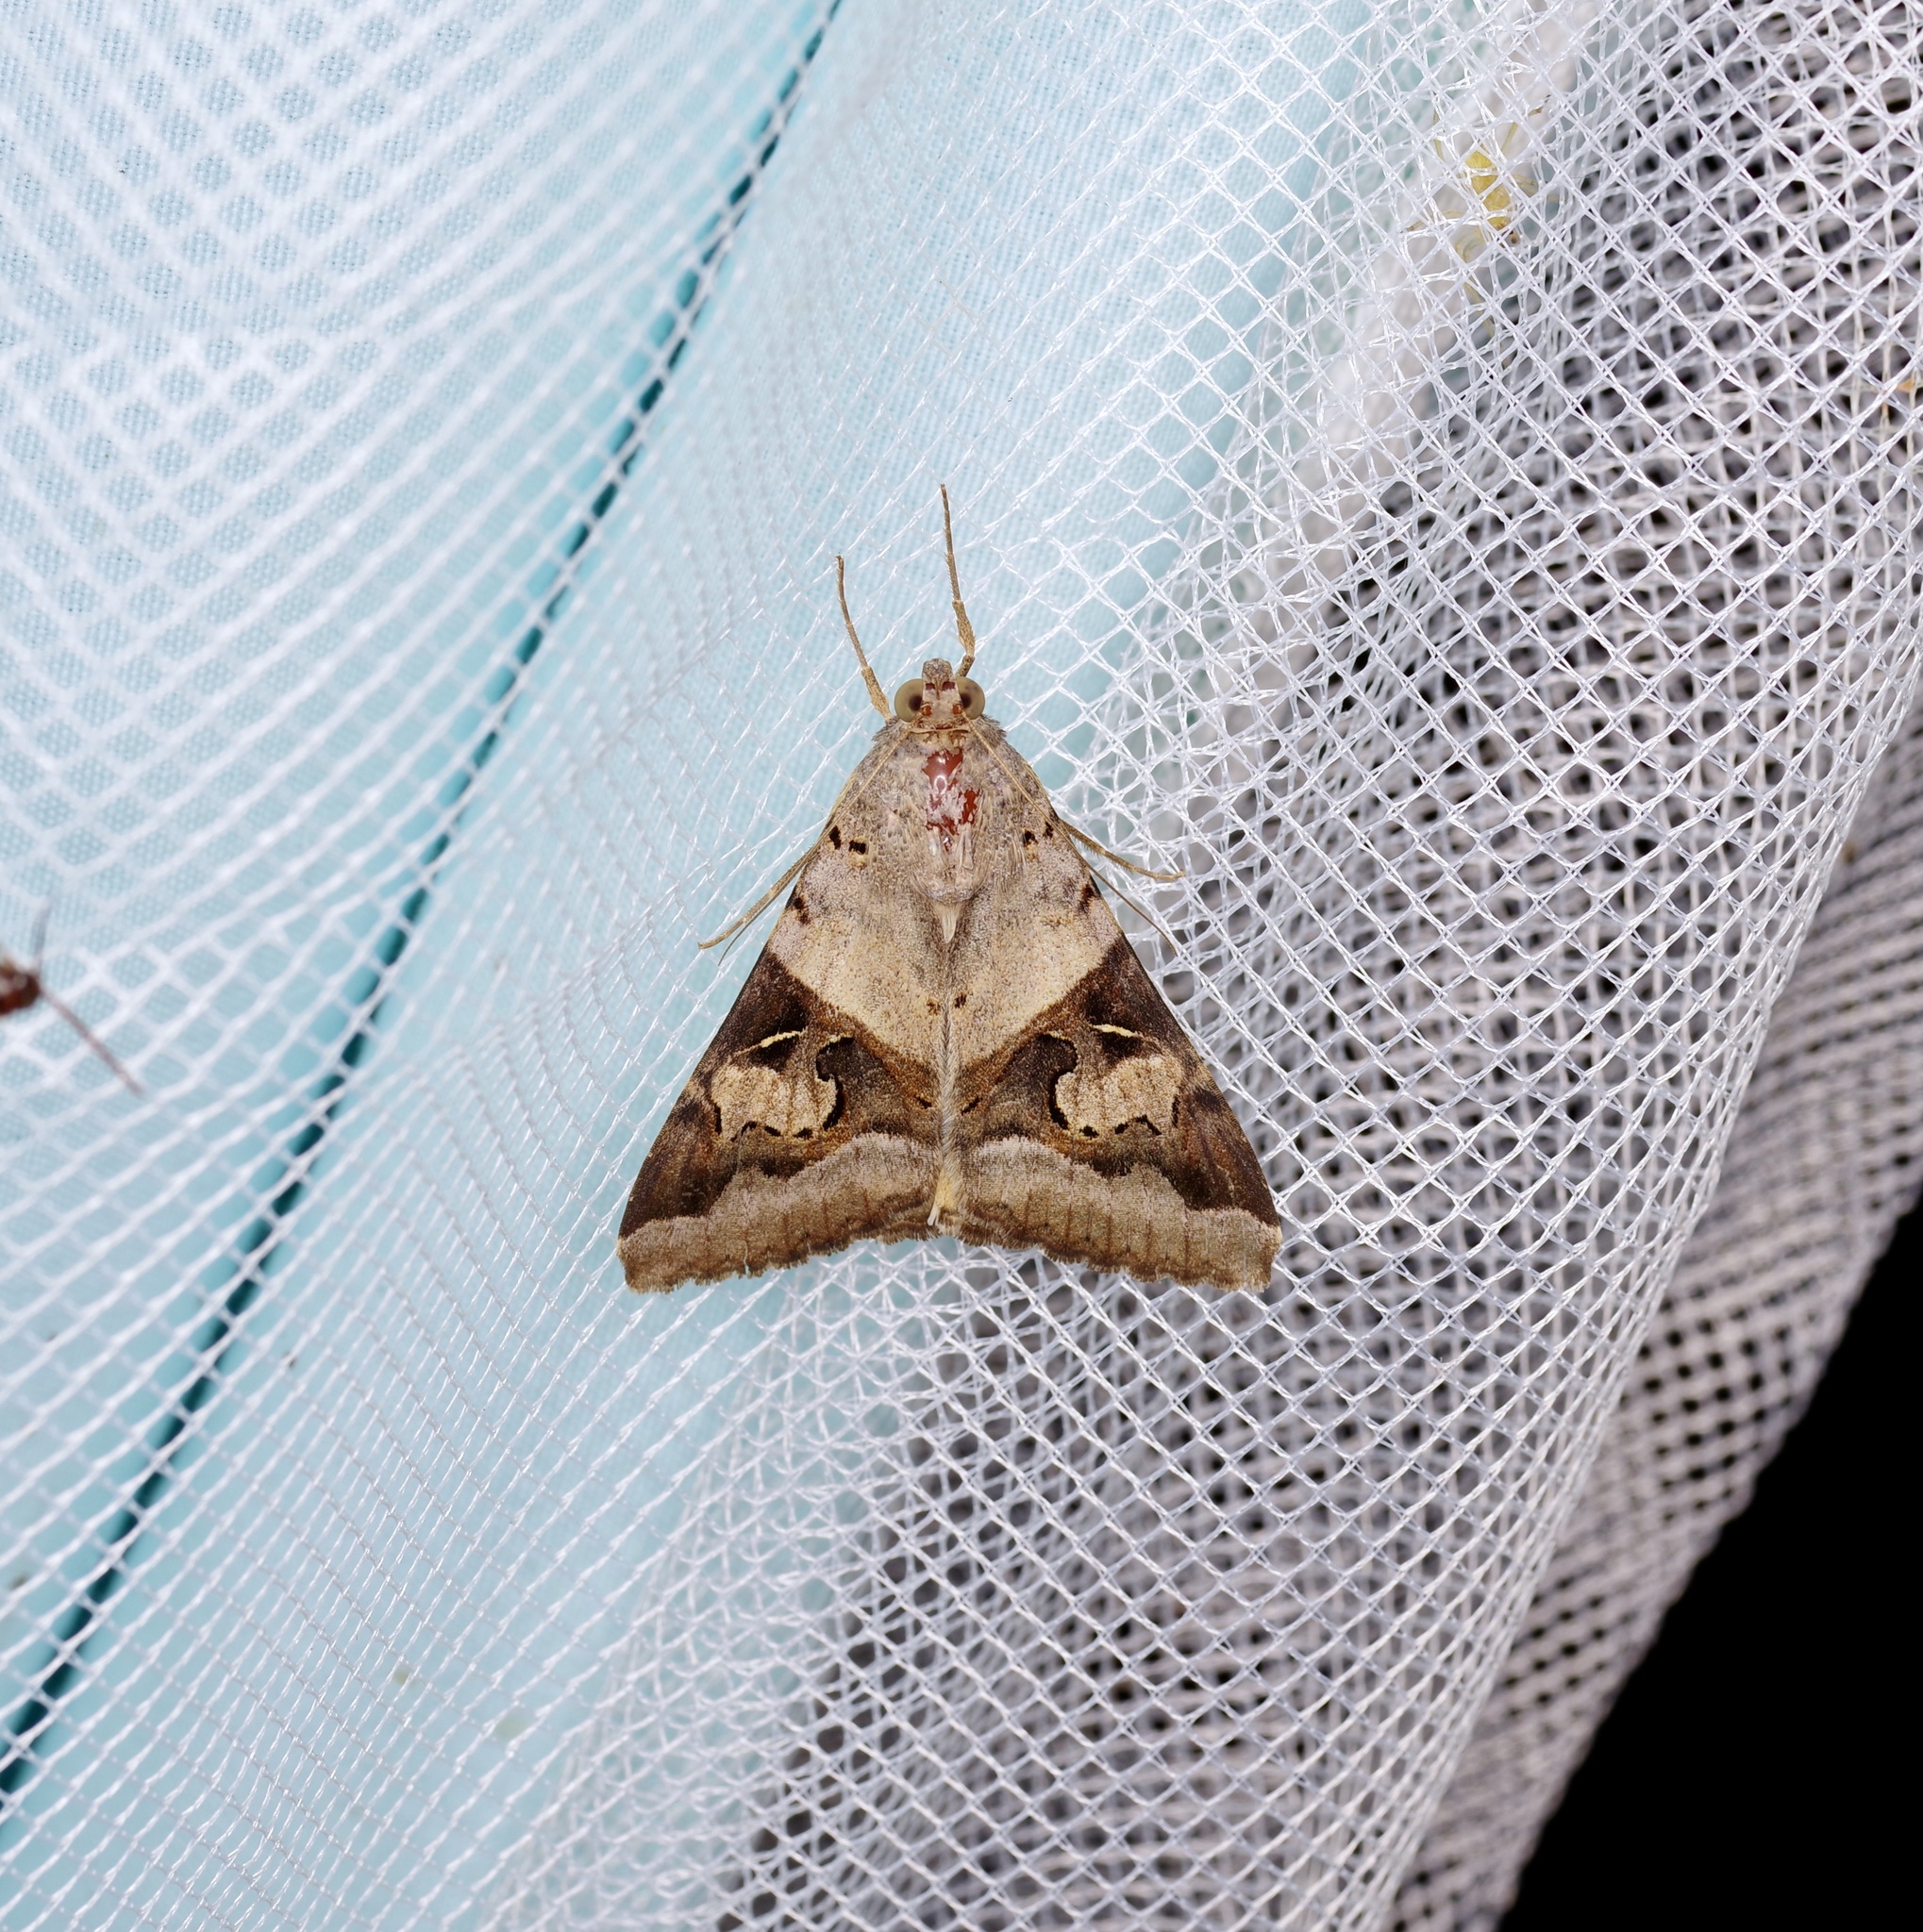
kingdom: Animalia
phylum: Arthropoda
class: Insecta
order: Lepidoptera
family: Erebidae
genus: Melipotis
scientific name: Melipotis indomita
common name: Moth
